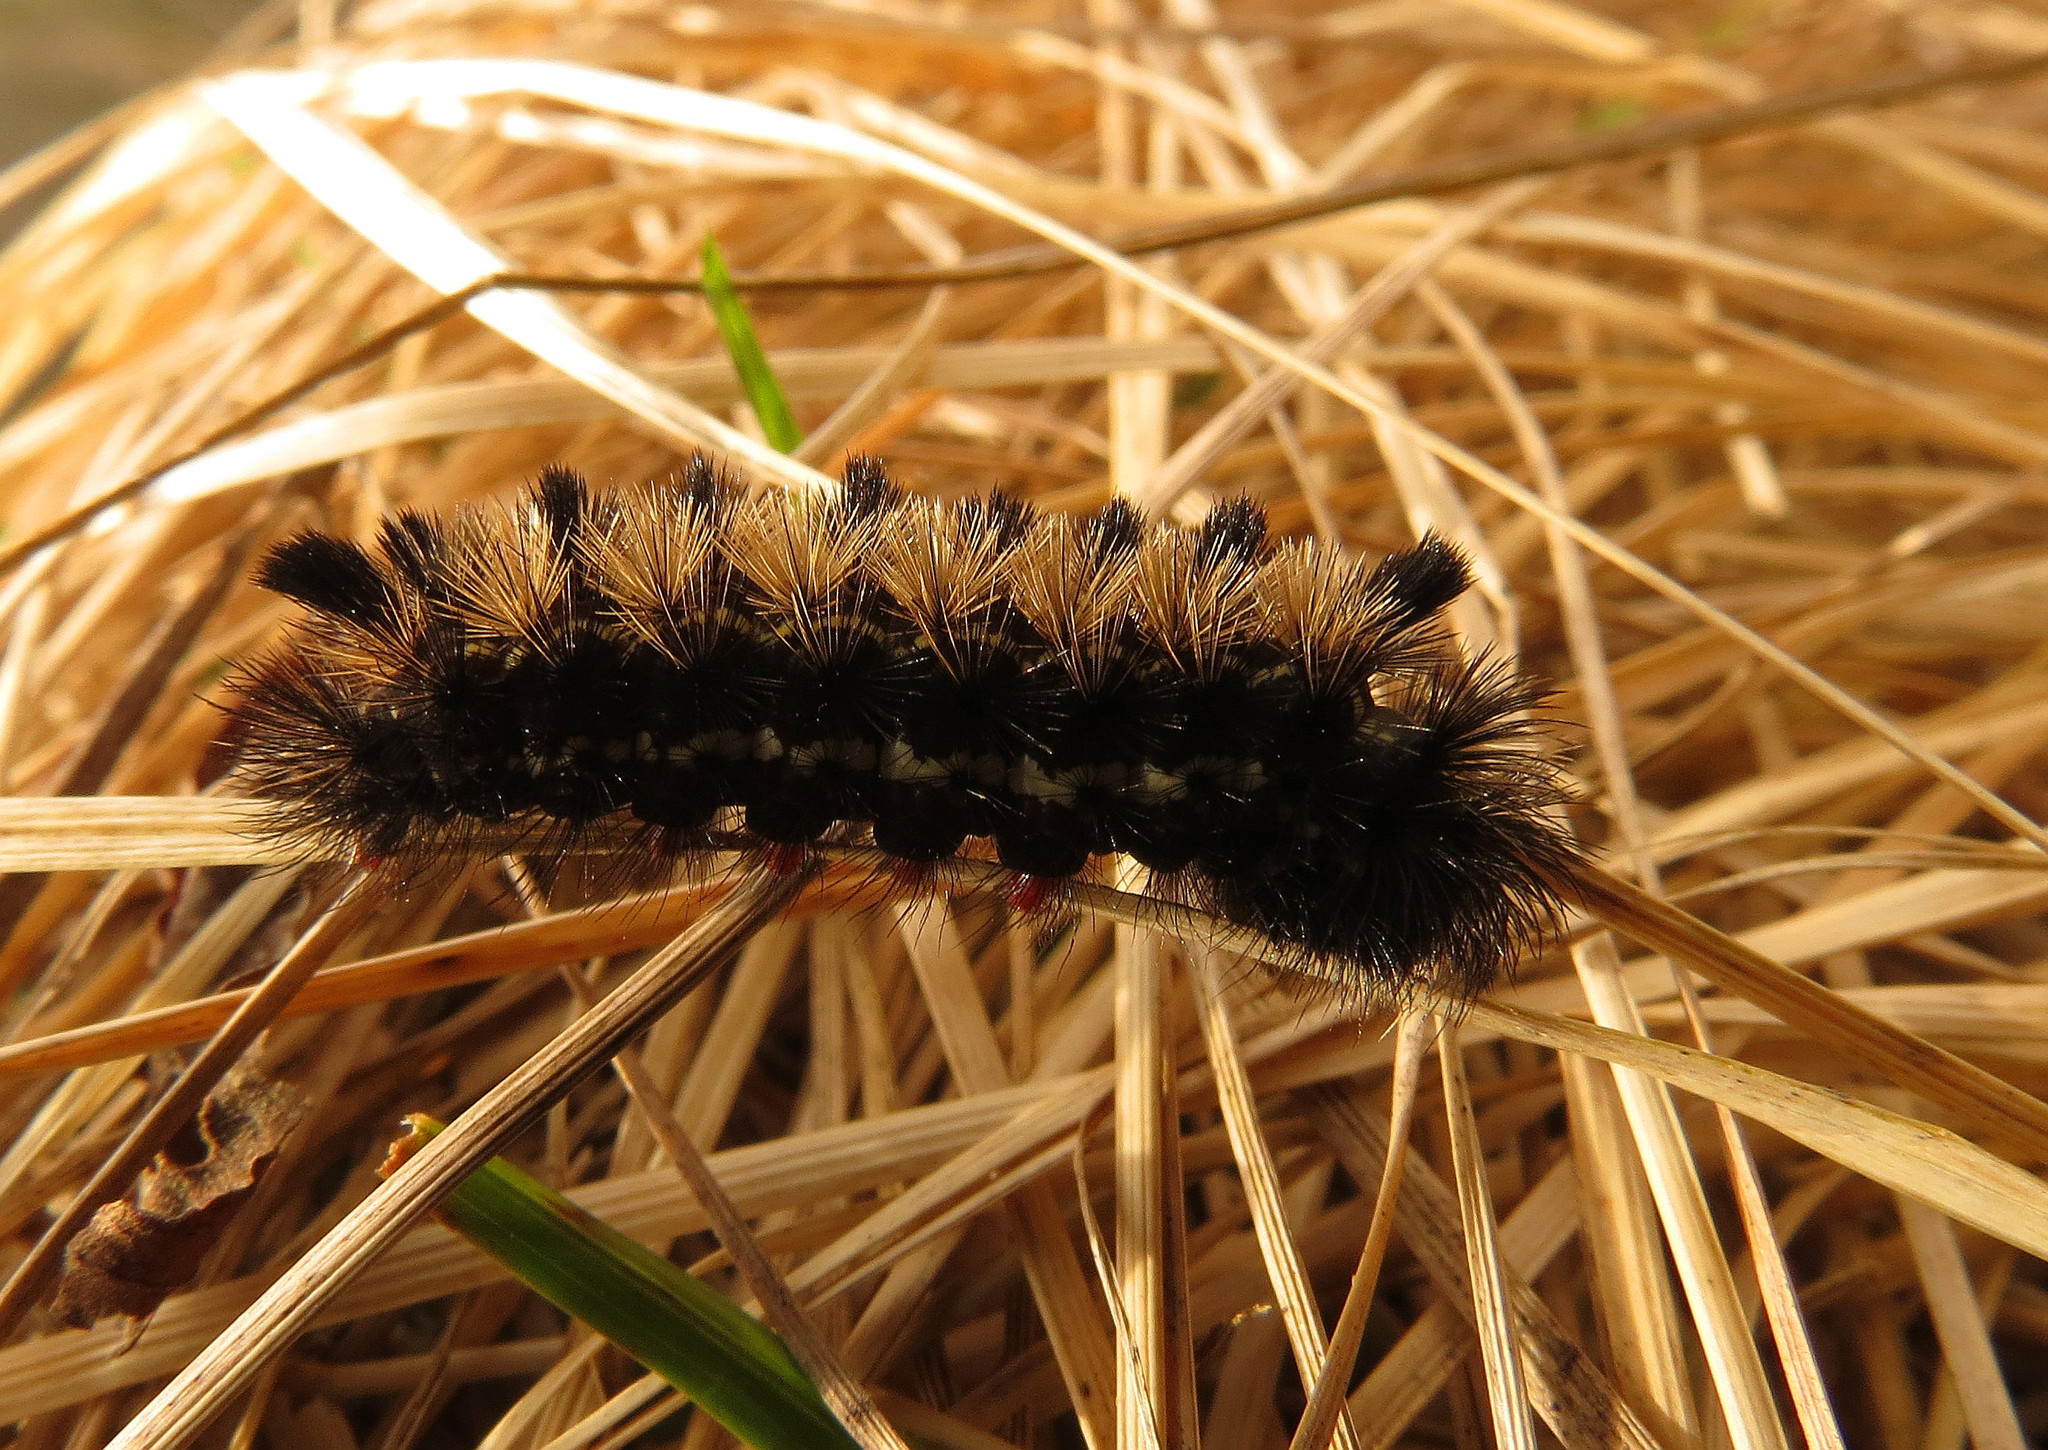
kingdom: Animalia
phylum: Arthropoda
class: Insecta
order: Lepidoptera
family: Erebidae
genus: Ctenucha
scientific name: Ctenucha virginica
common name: Virginia ctenucha moth
